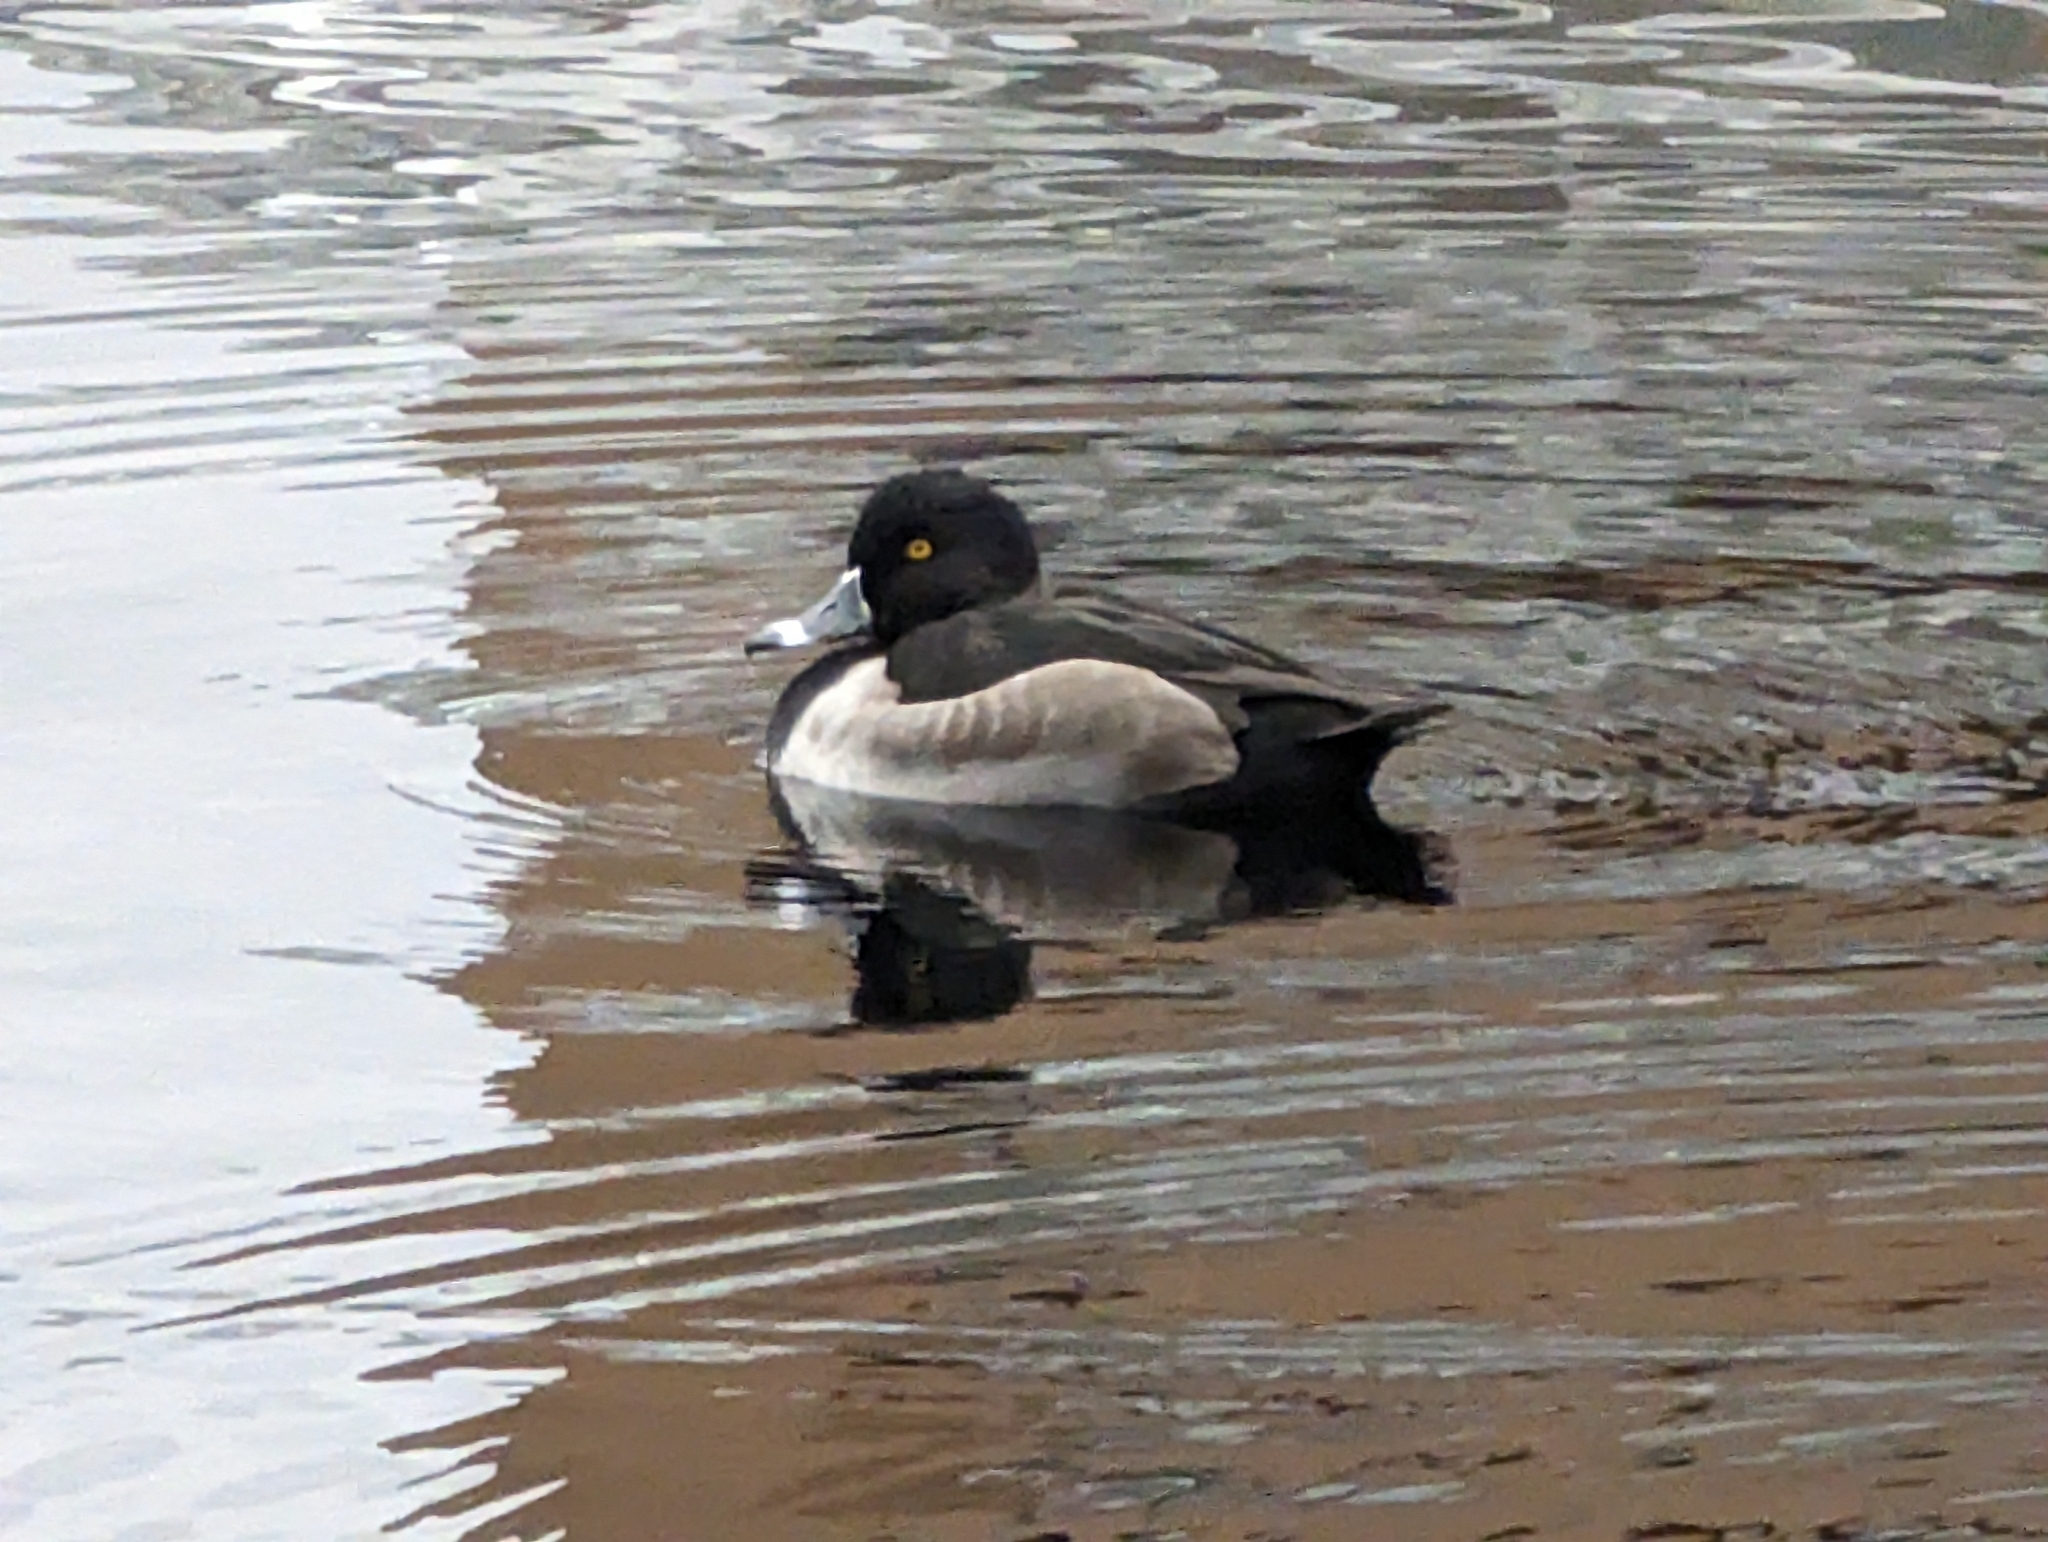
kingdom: Animalia
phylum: Chordata
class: Aves
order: Anseriformes
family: Anatidae
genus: Aythya
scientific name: Aythya collaris
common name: Ring-necked duck
